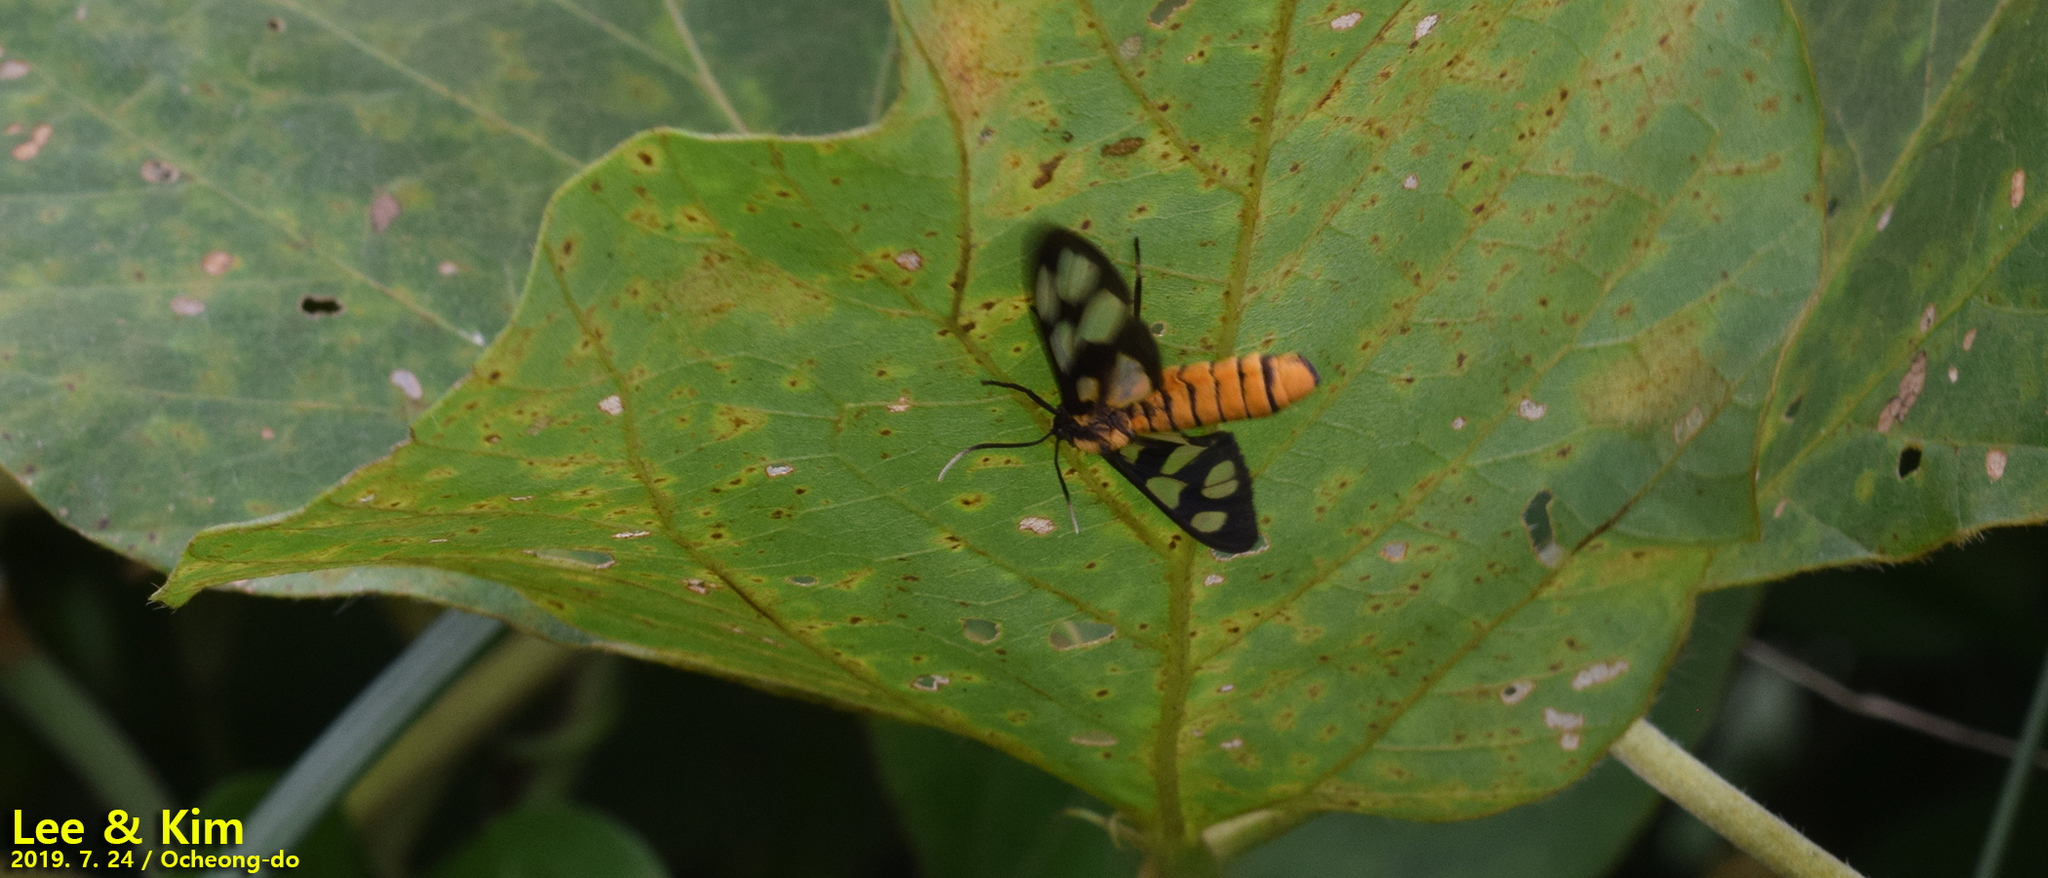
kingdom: Animalia
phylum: Arthropoda
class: Insecta
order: Lepidoptera
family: Erebidae
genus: Amata
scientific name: Amata germana
